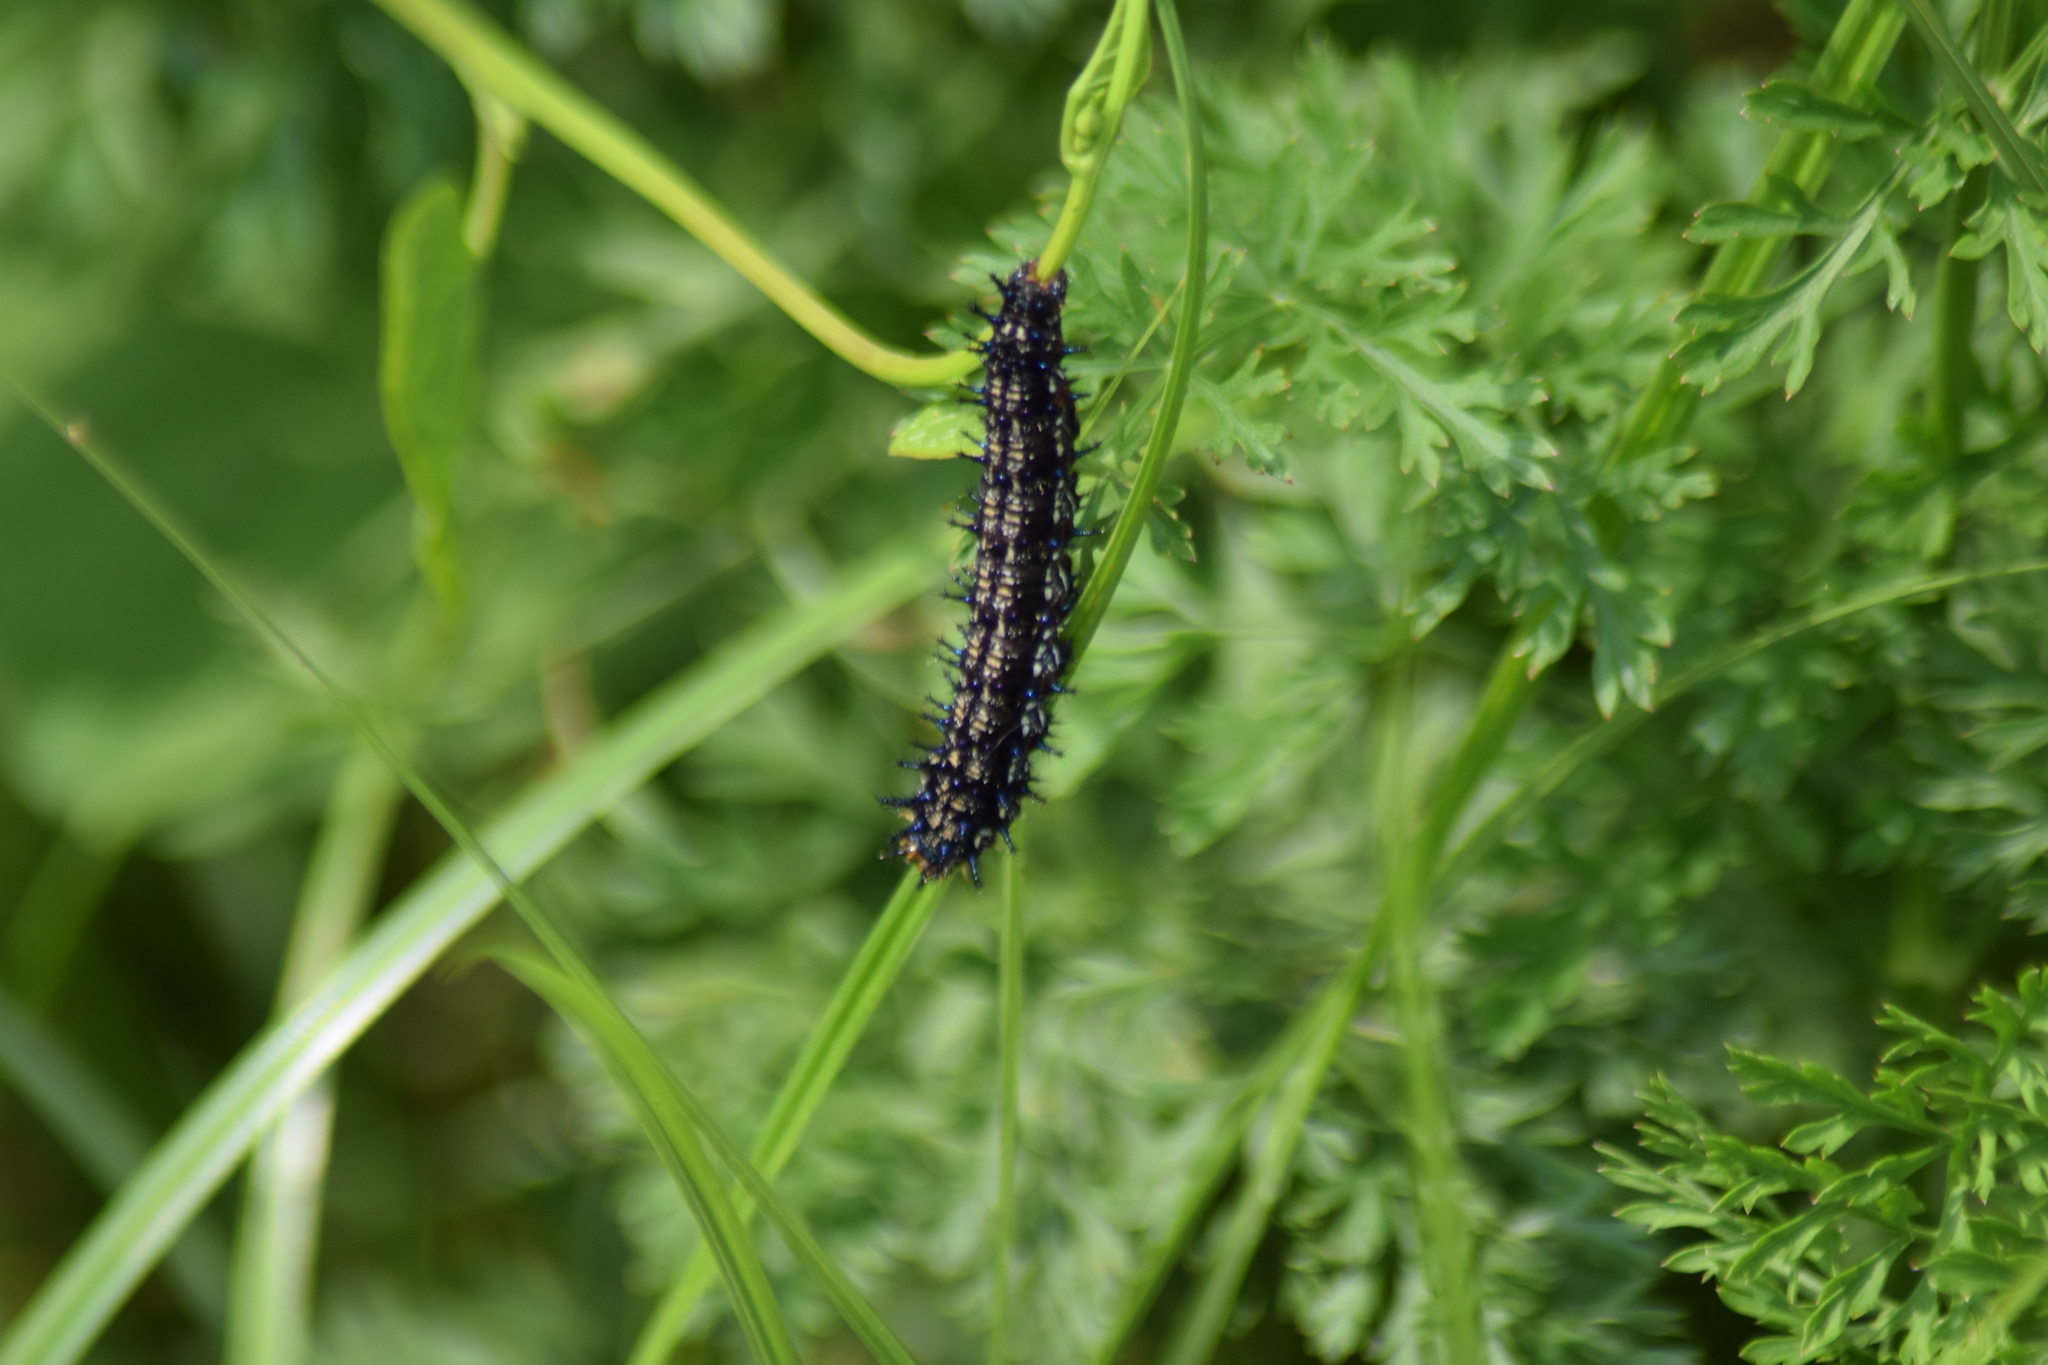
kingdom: Animalia
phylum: Arthropoda
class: Insecta
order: Lepidoptera
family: Nymphalidae
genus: Junonia
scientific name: Junonia coenia
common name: Common buckeye
